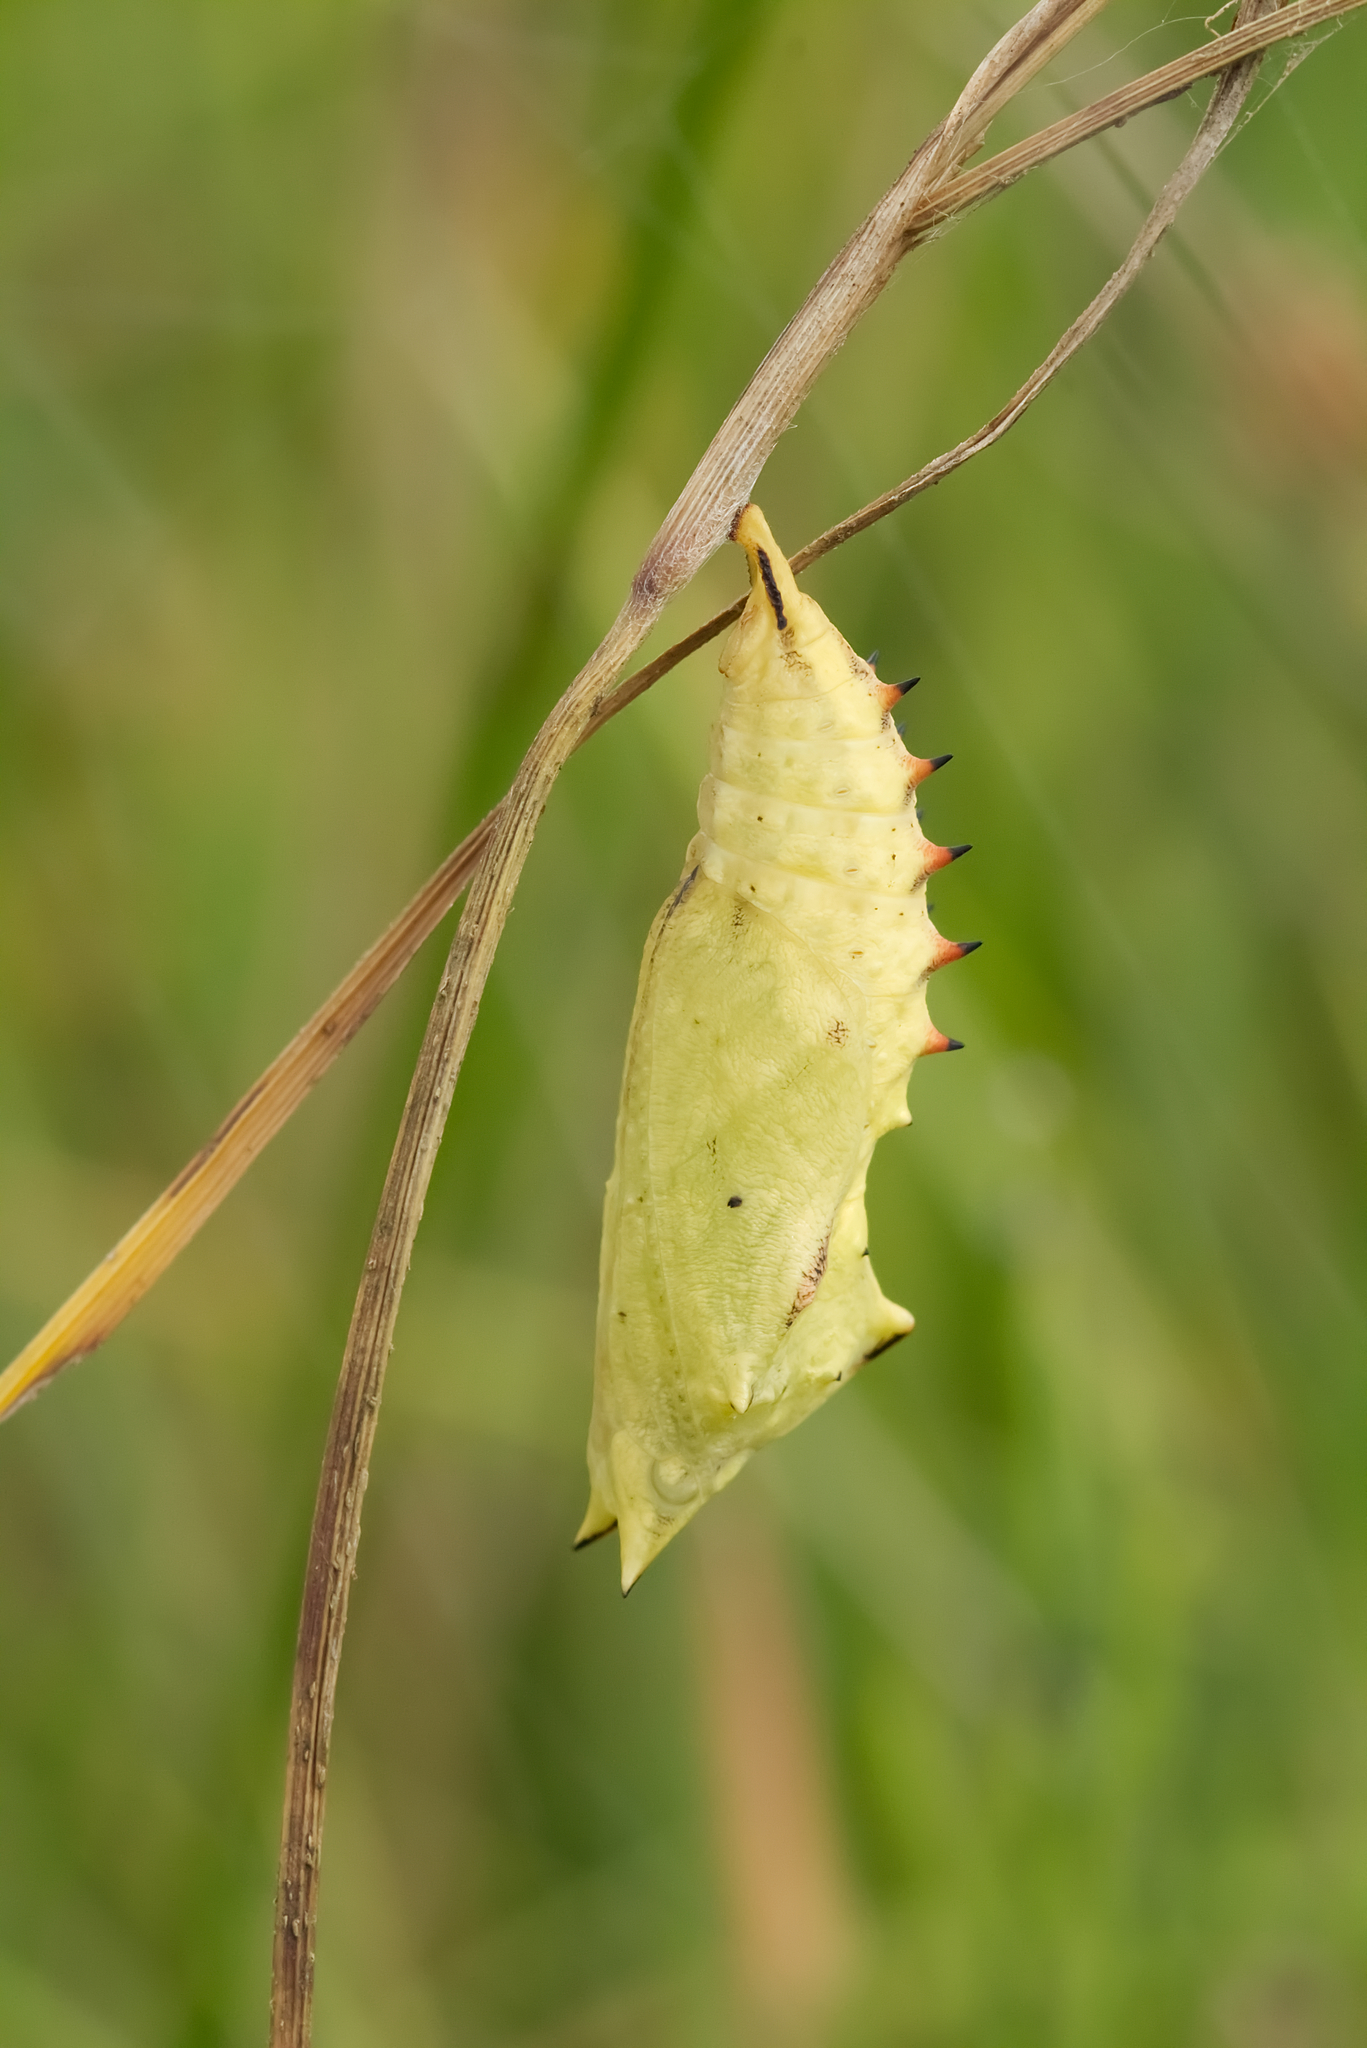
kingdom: Animalia
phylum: Arthropoda
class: Insecta
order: Lepidoptera
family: Nymphalidae
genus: Aglais
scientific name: Aglais io
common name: Peacock
